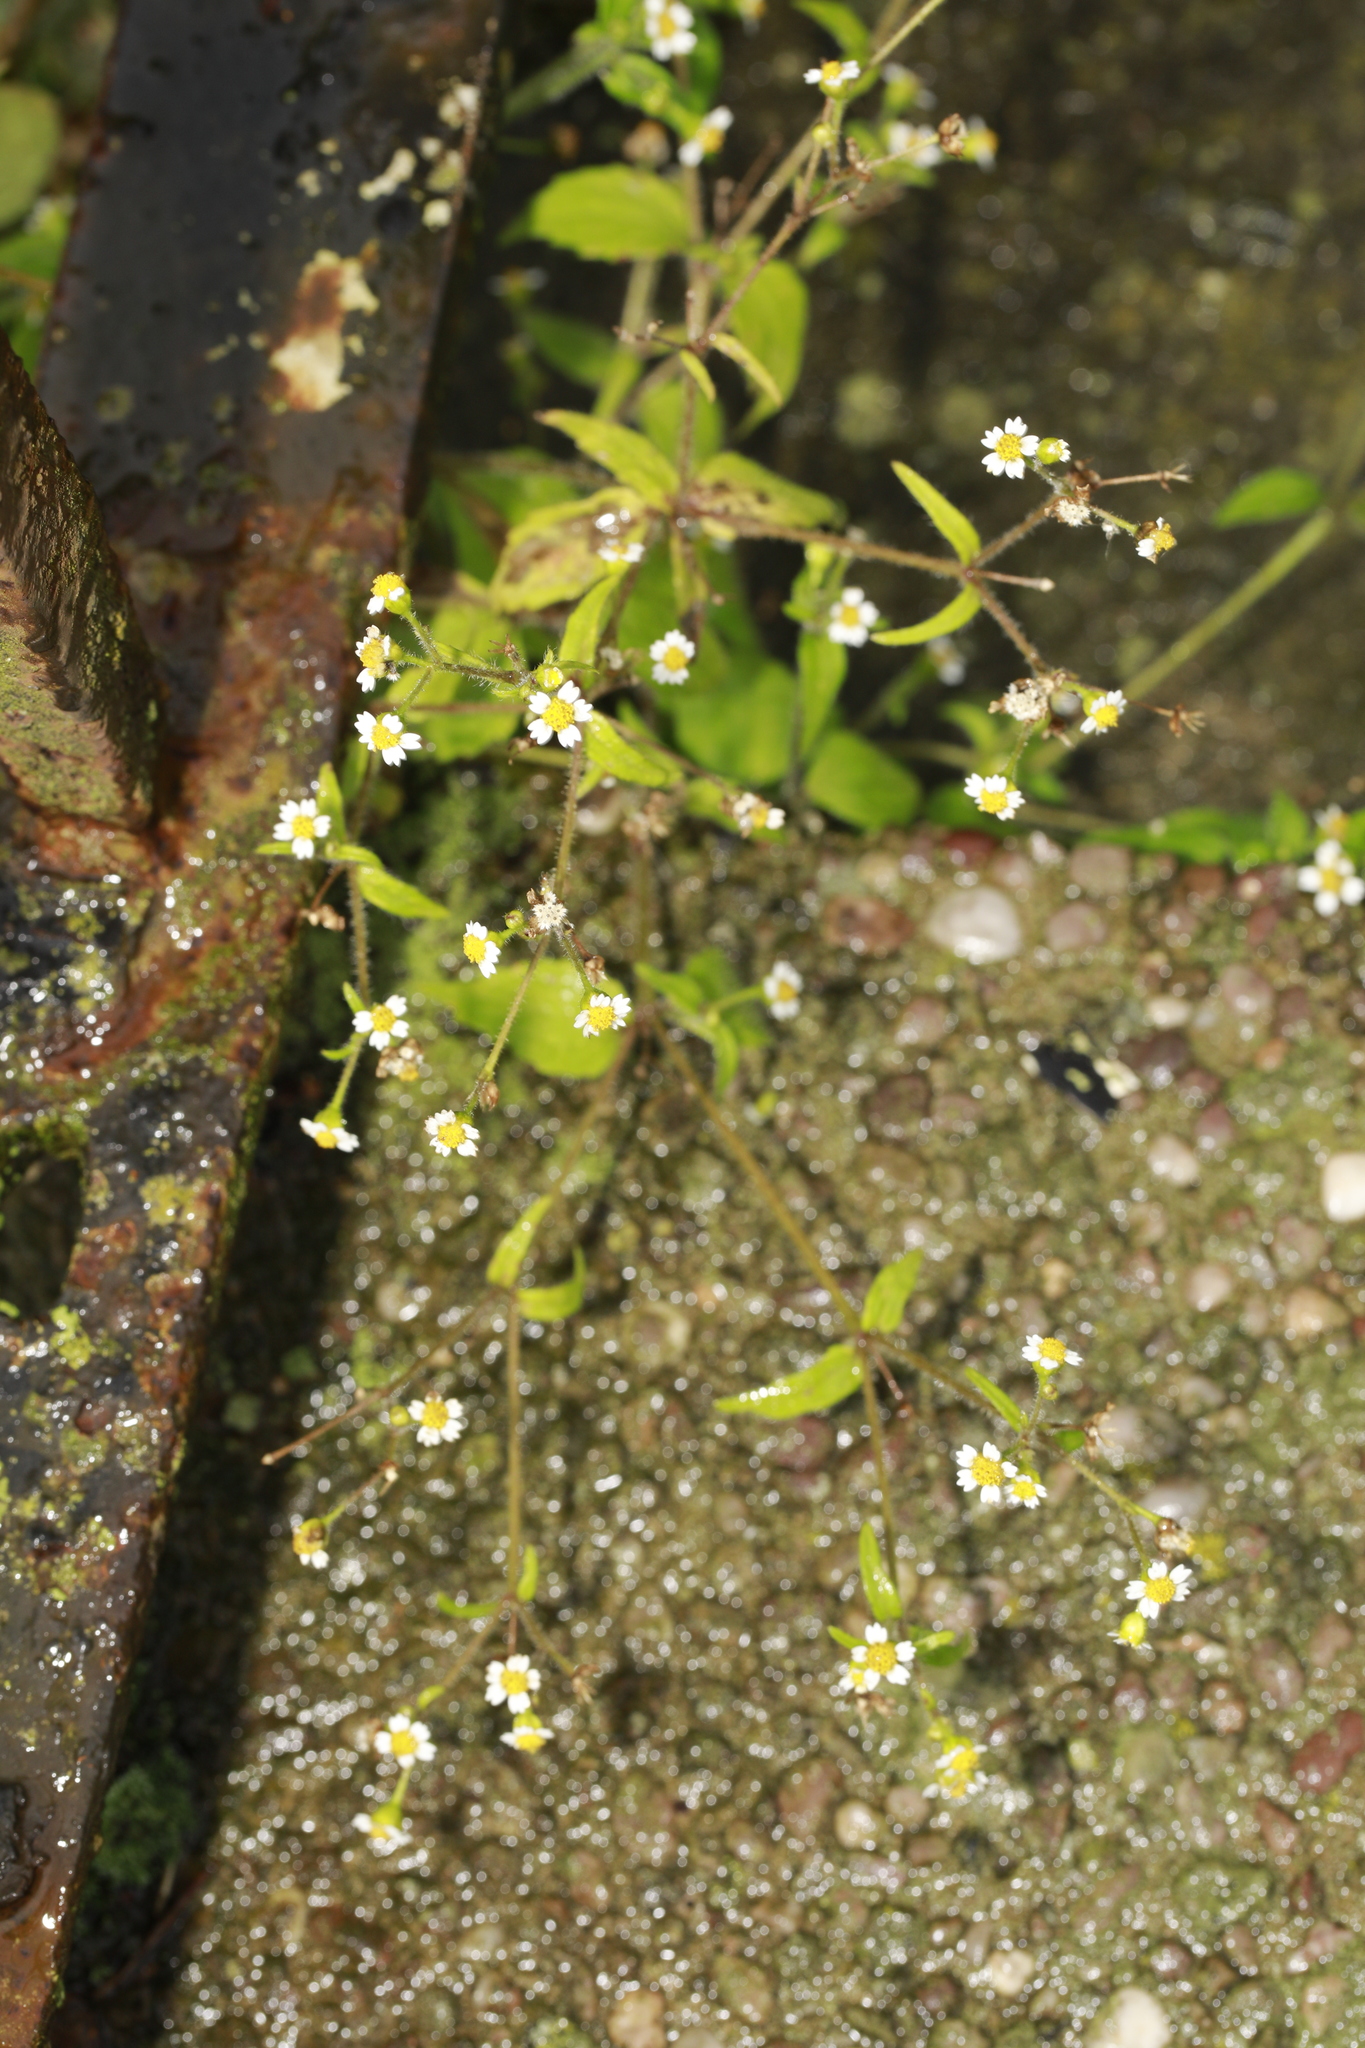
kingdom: Plantae
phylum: Tracheophyta
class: Magnoliopsida
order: Asterales
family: Asteraceae
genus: Galinsoga
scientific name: Galinsoga quadriradiata
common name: Shaggy soldier
